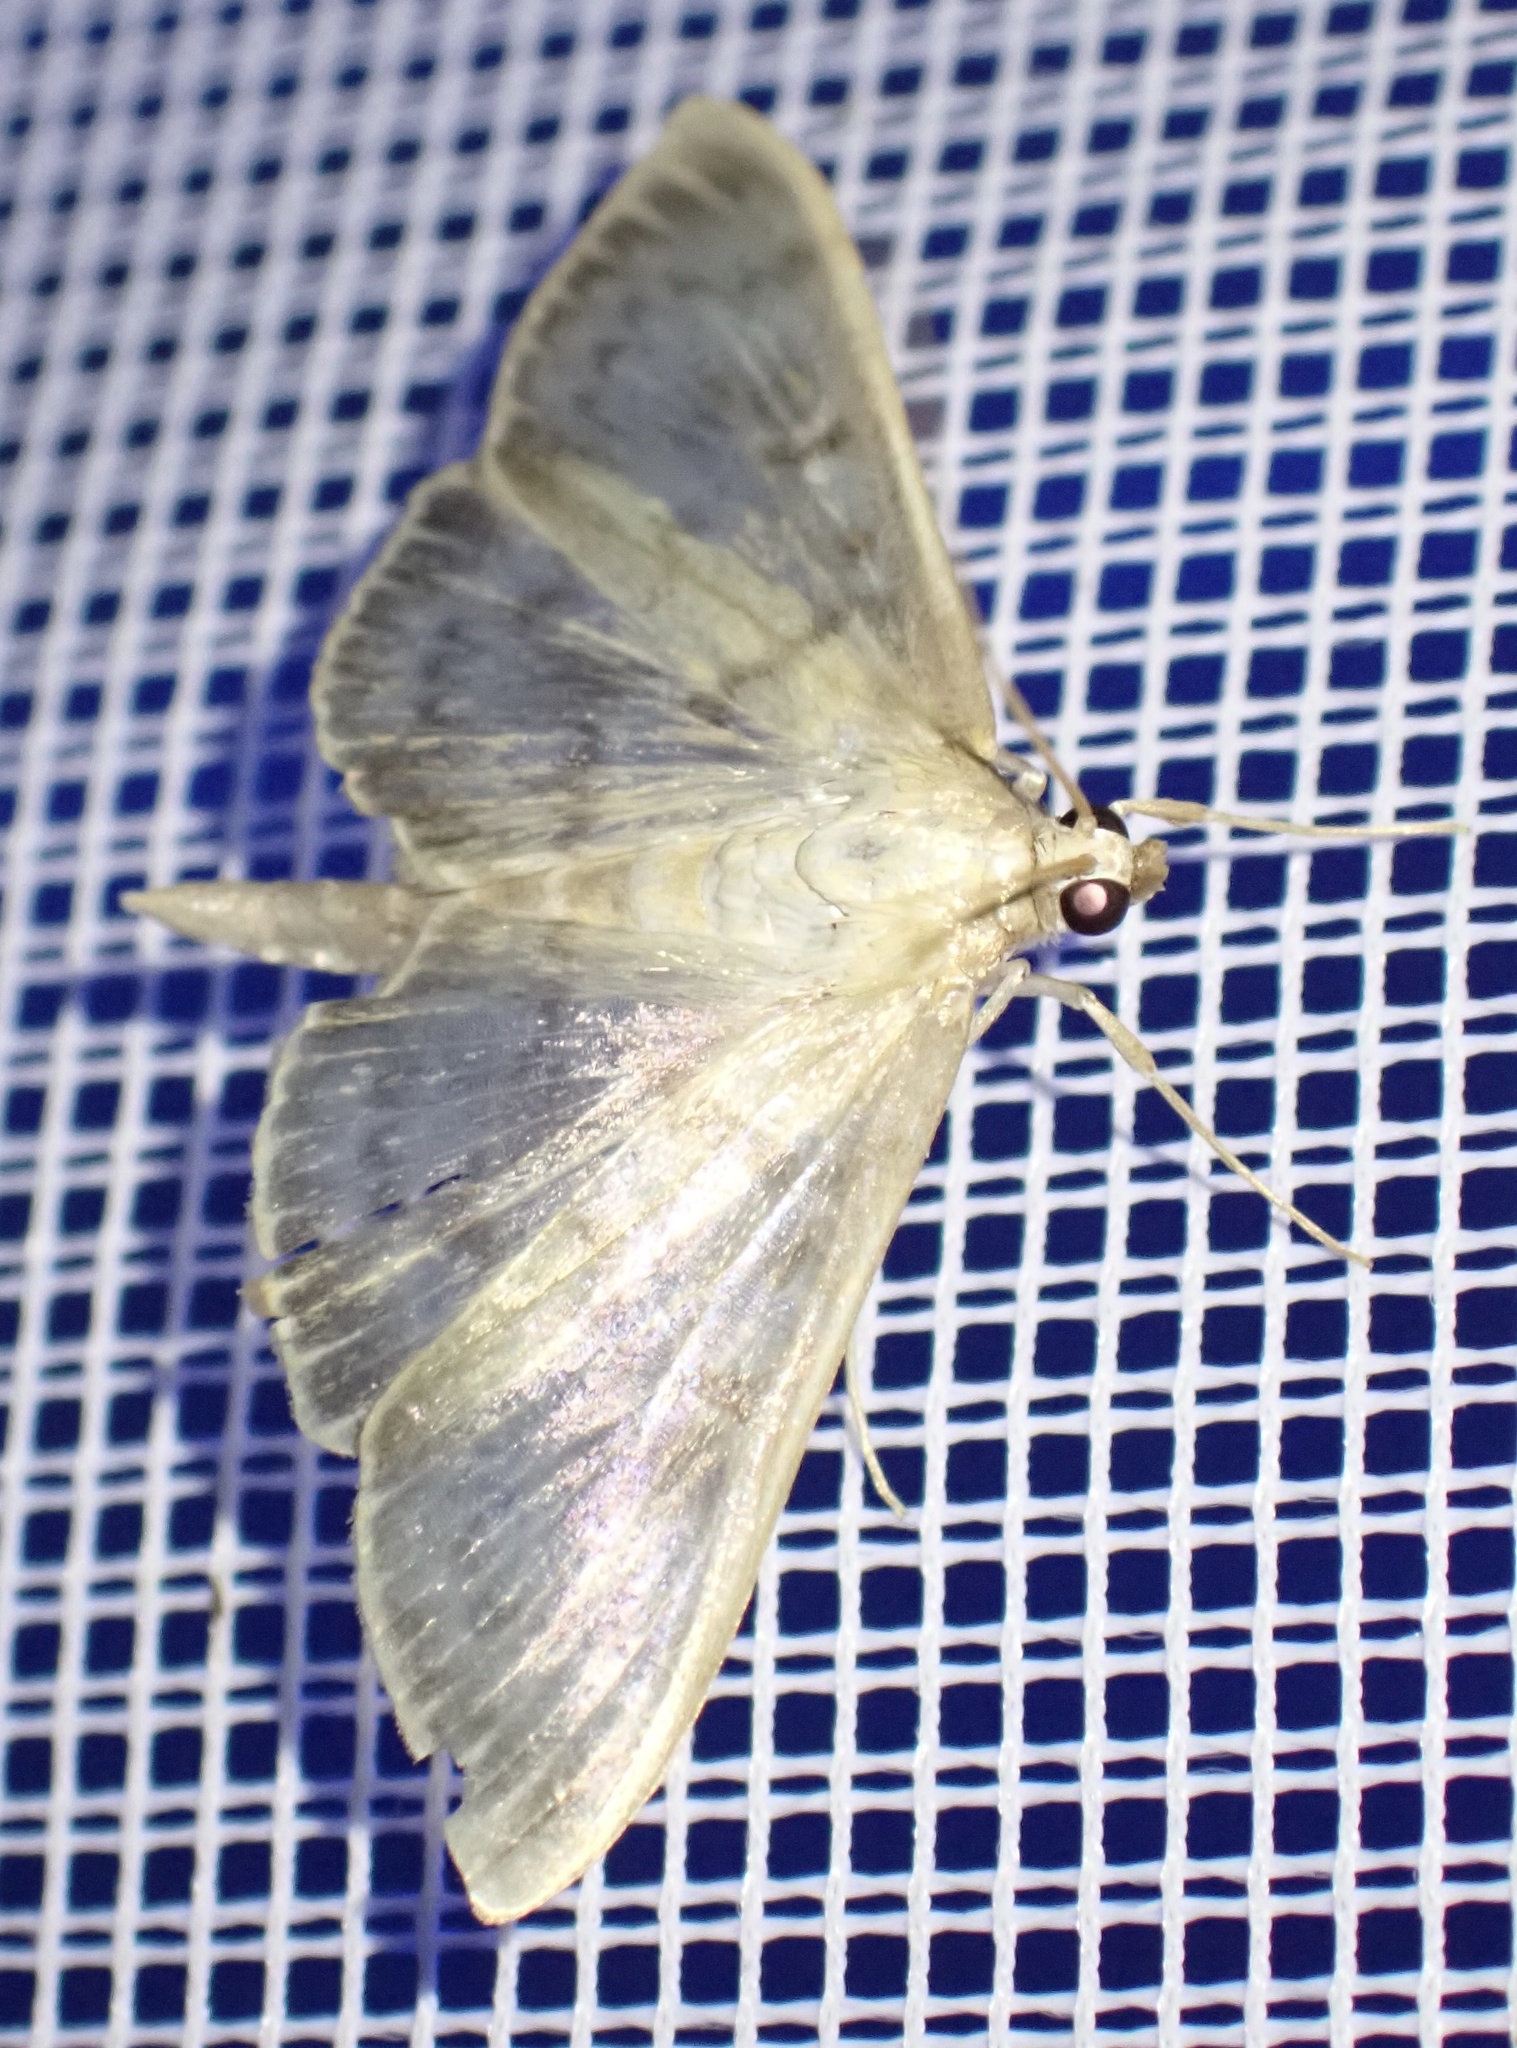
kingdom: Animalia
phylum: Arthropoda
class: Insecta
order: Lepidoptera
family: Crambidae
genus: Patania
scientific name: Patania ruralis
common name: Mother of pearl
